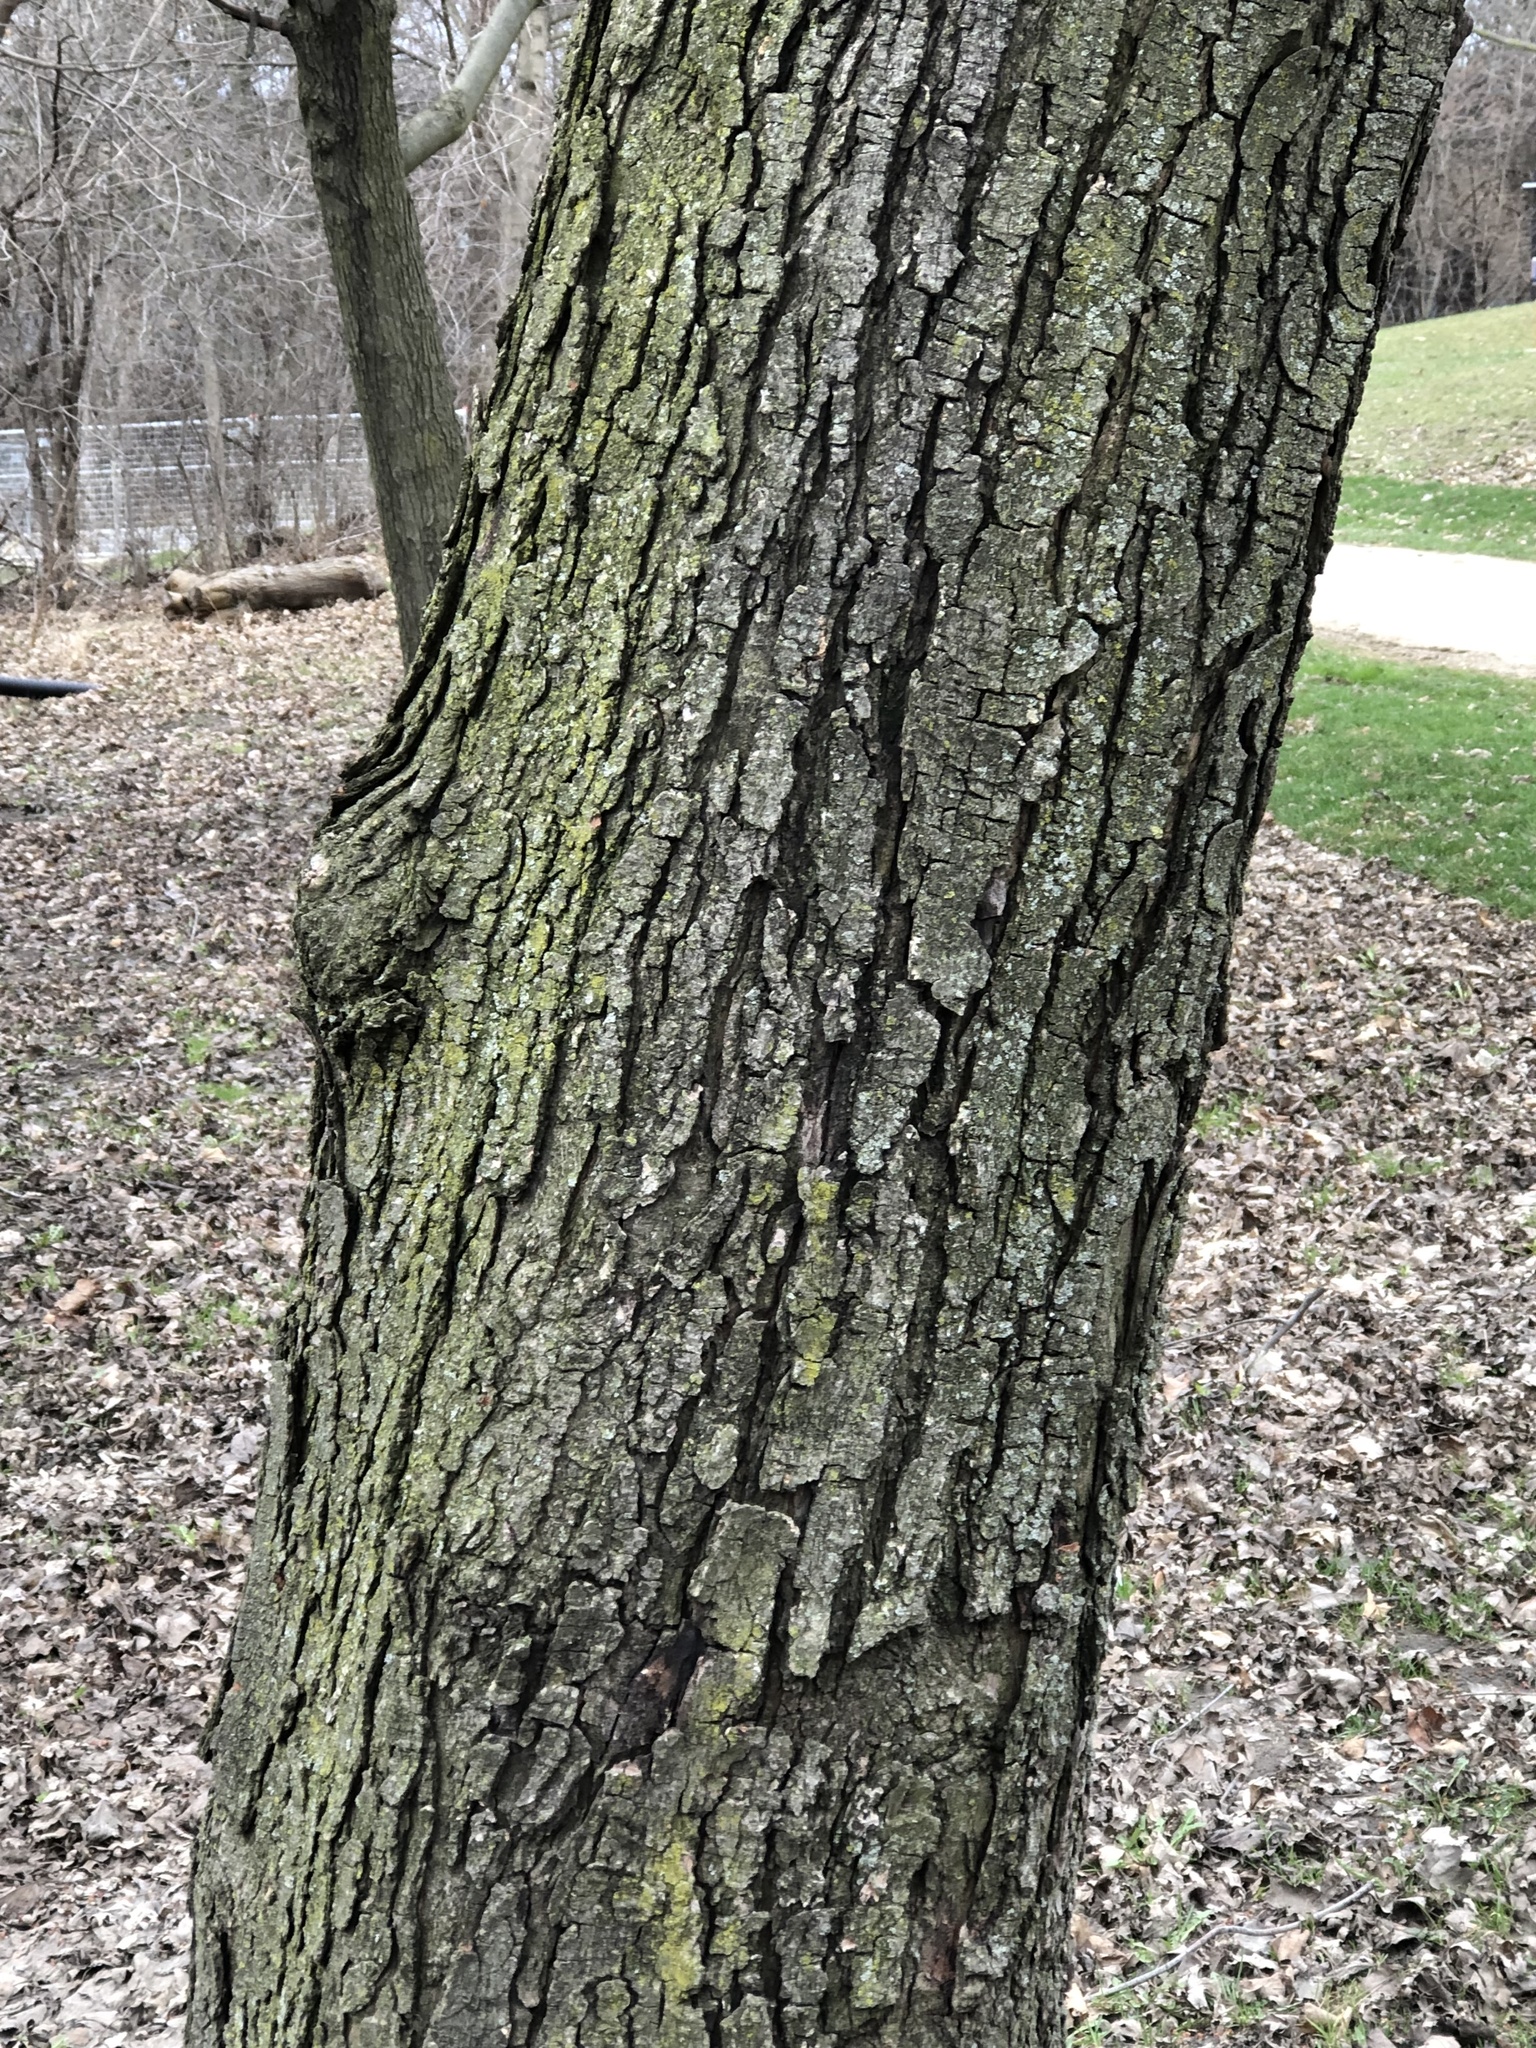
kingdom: Plantae
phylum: Tracheophyta
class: Magnoliopsida
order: Sapindales
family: Sapindaceae
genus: Acer
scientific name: Acer rubrum
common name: Red maple
